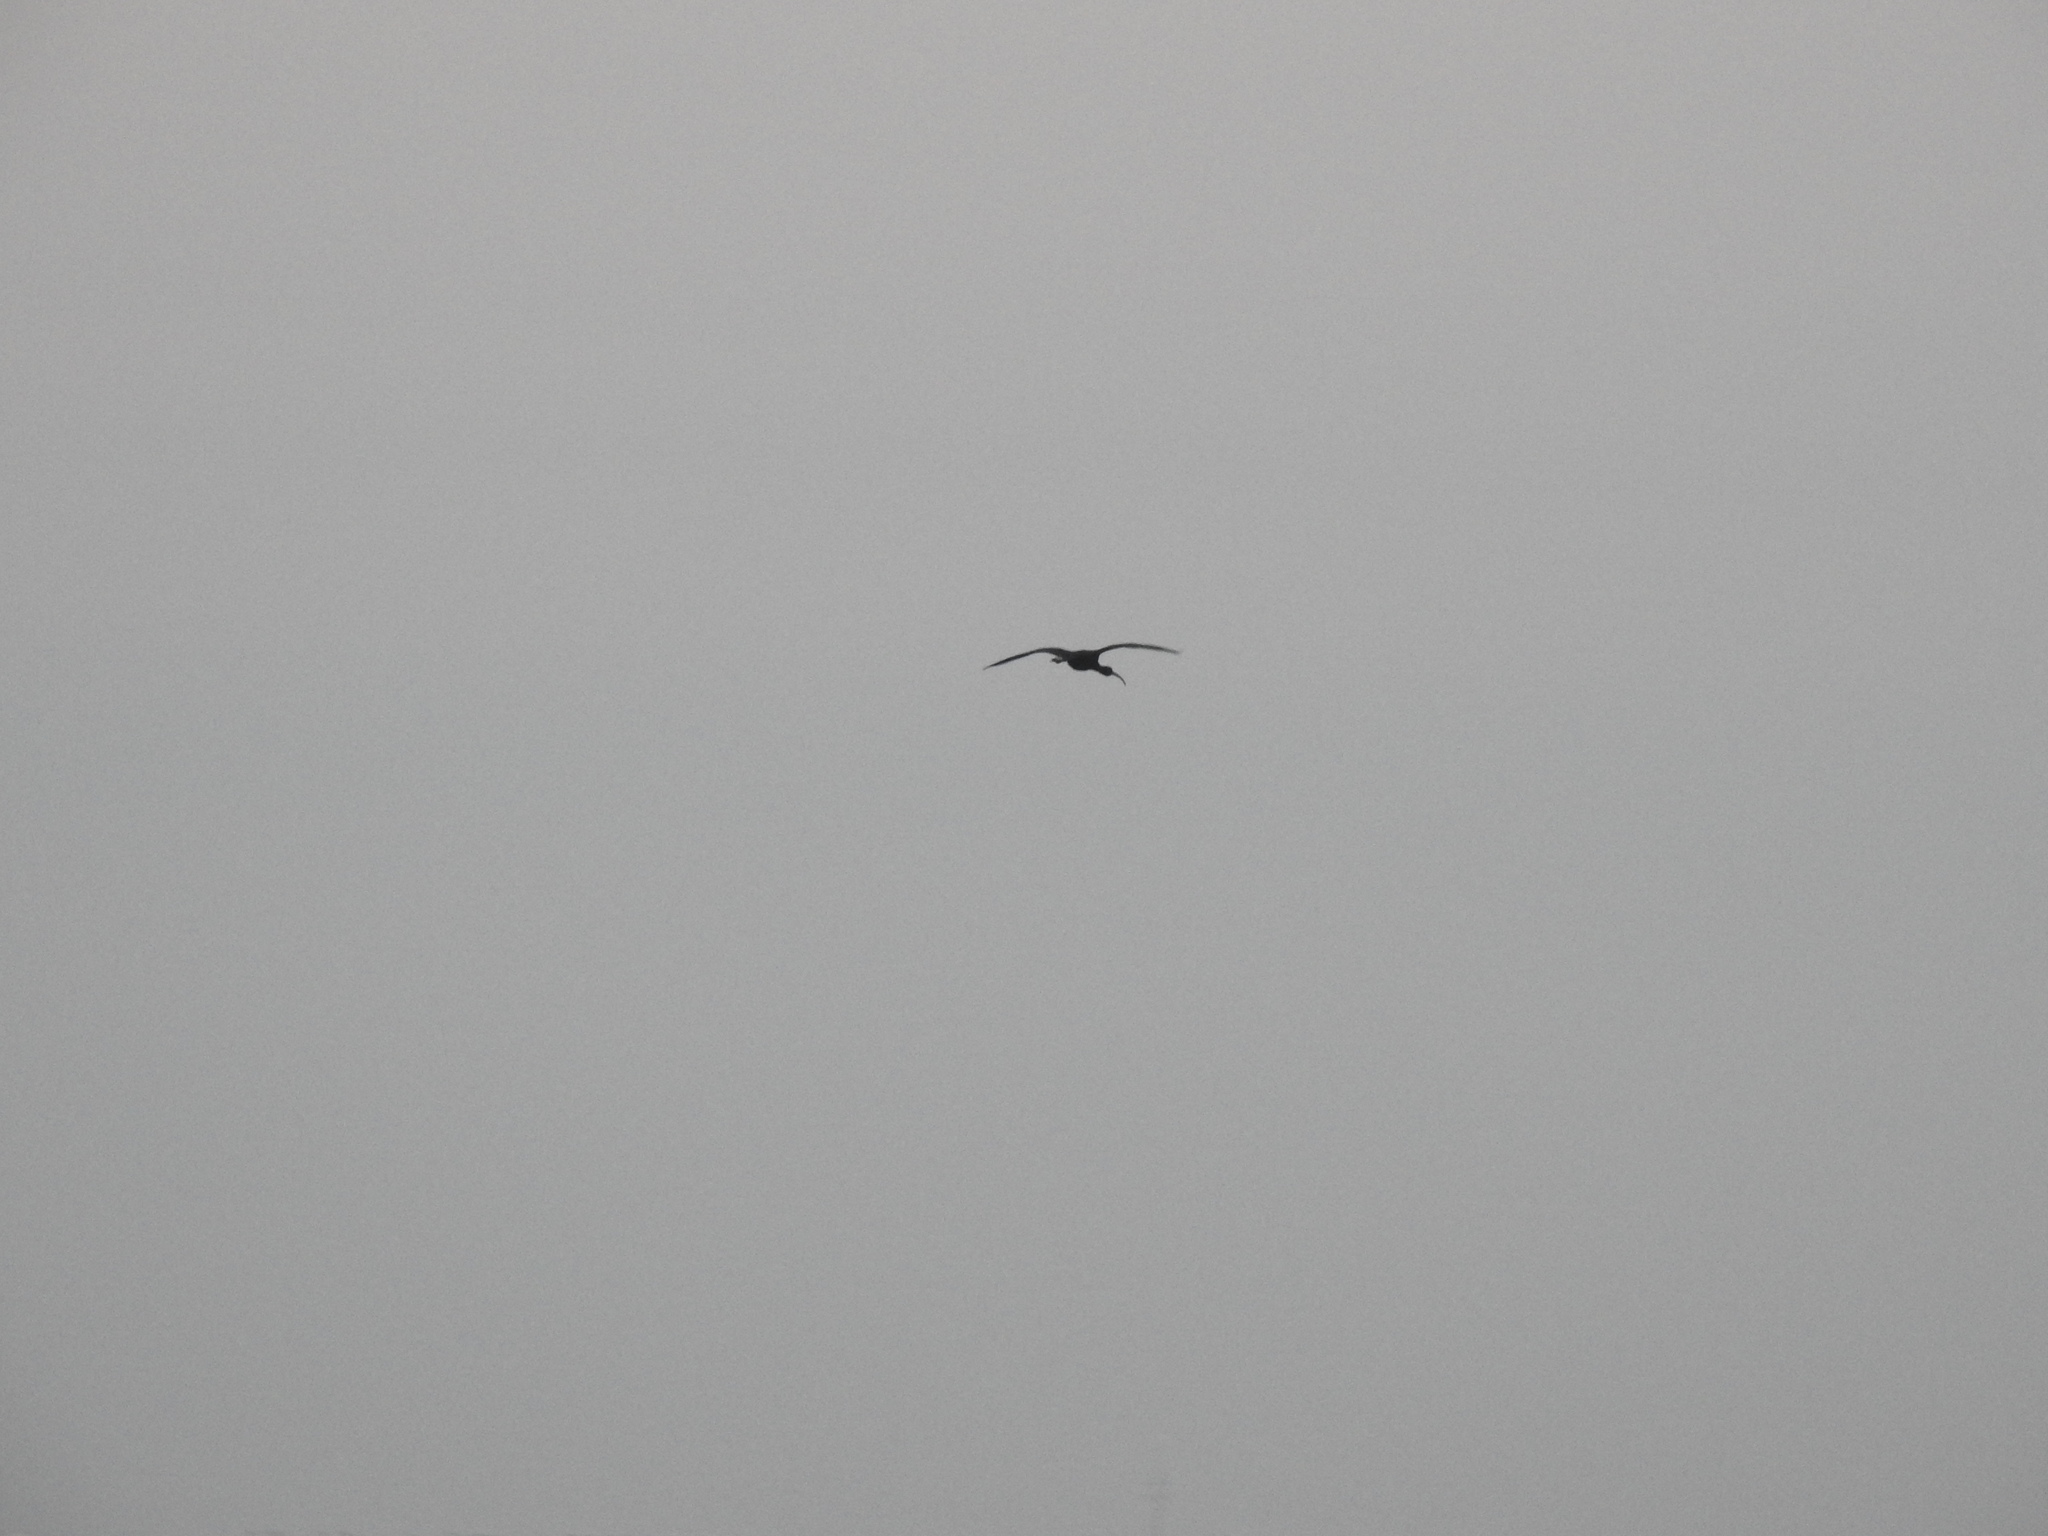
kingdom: Animalia
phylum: Chordata
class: Aves
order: Pelecaniformes
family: Threskiornithidae
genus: Plegadis
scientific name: Plegadis falcinellus
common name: Glossy ibis
